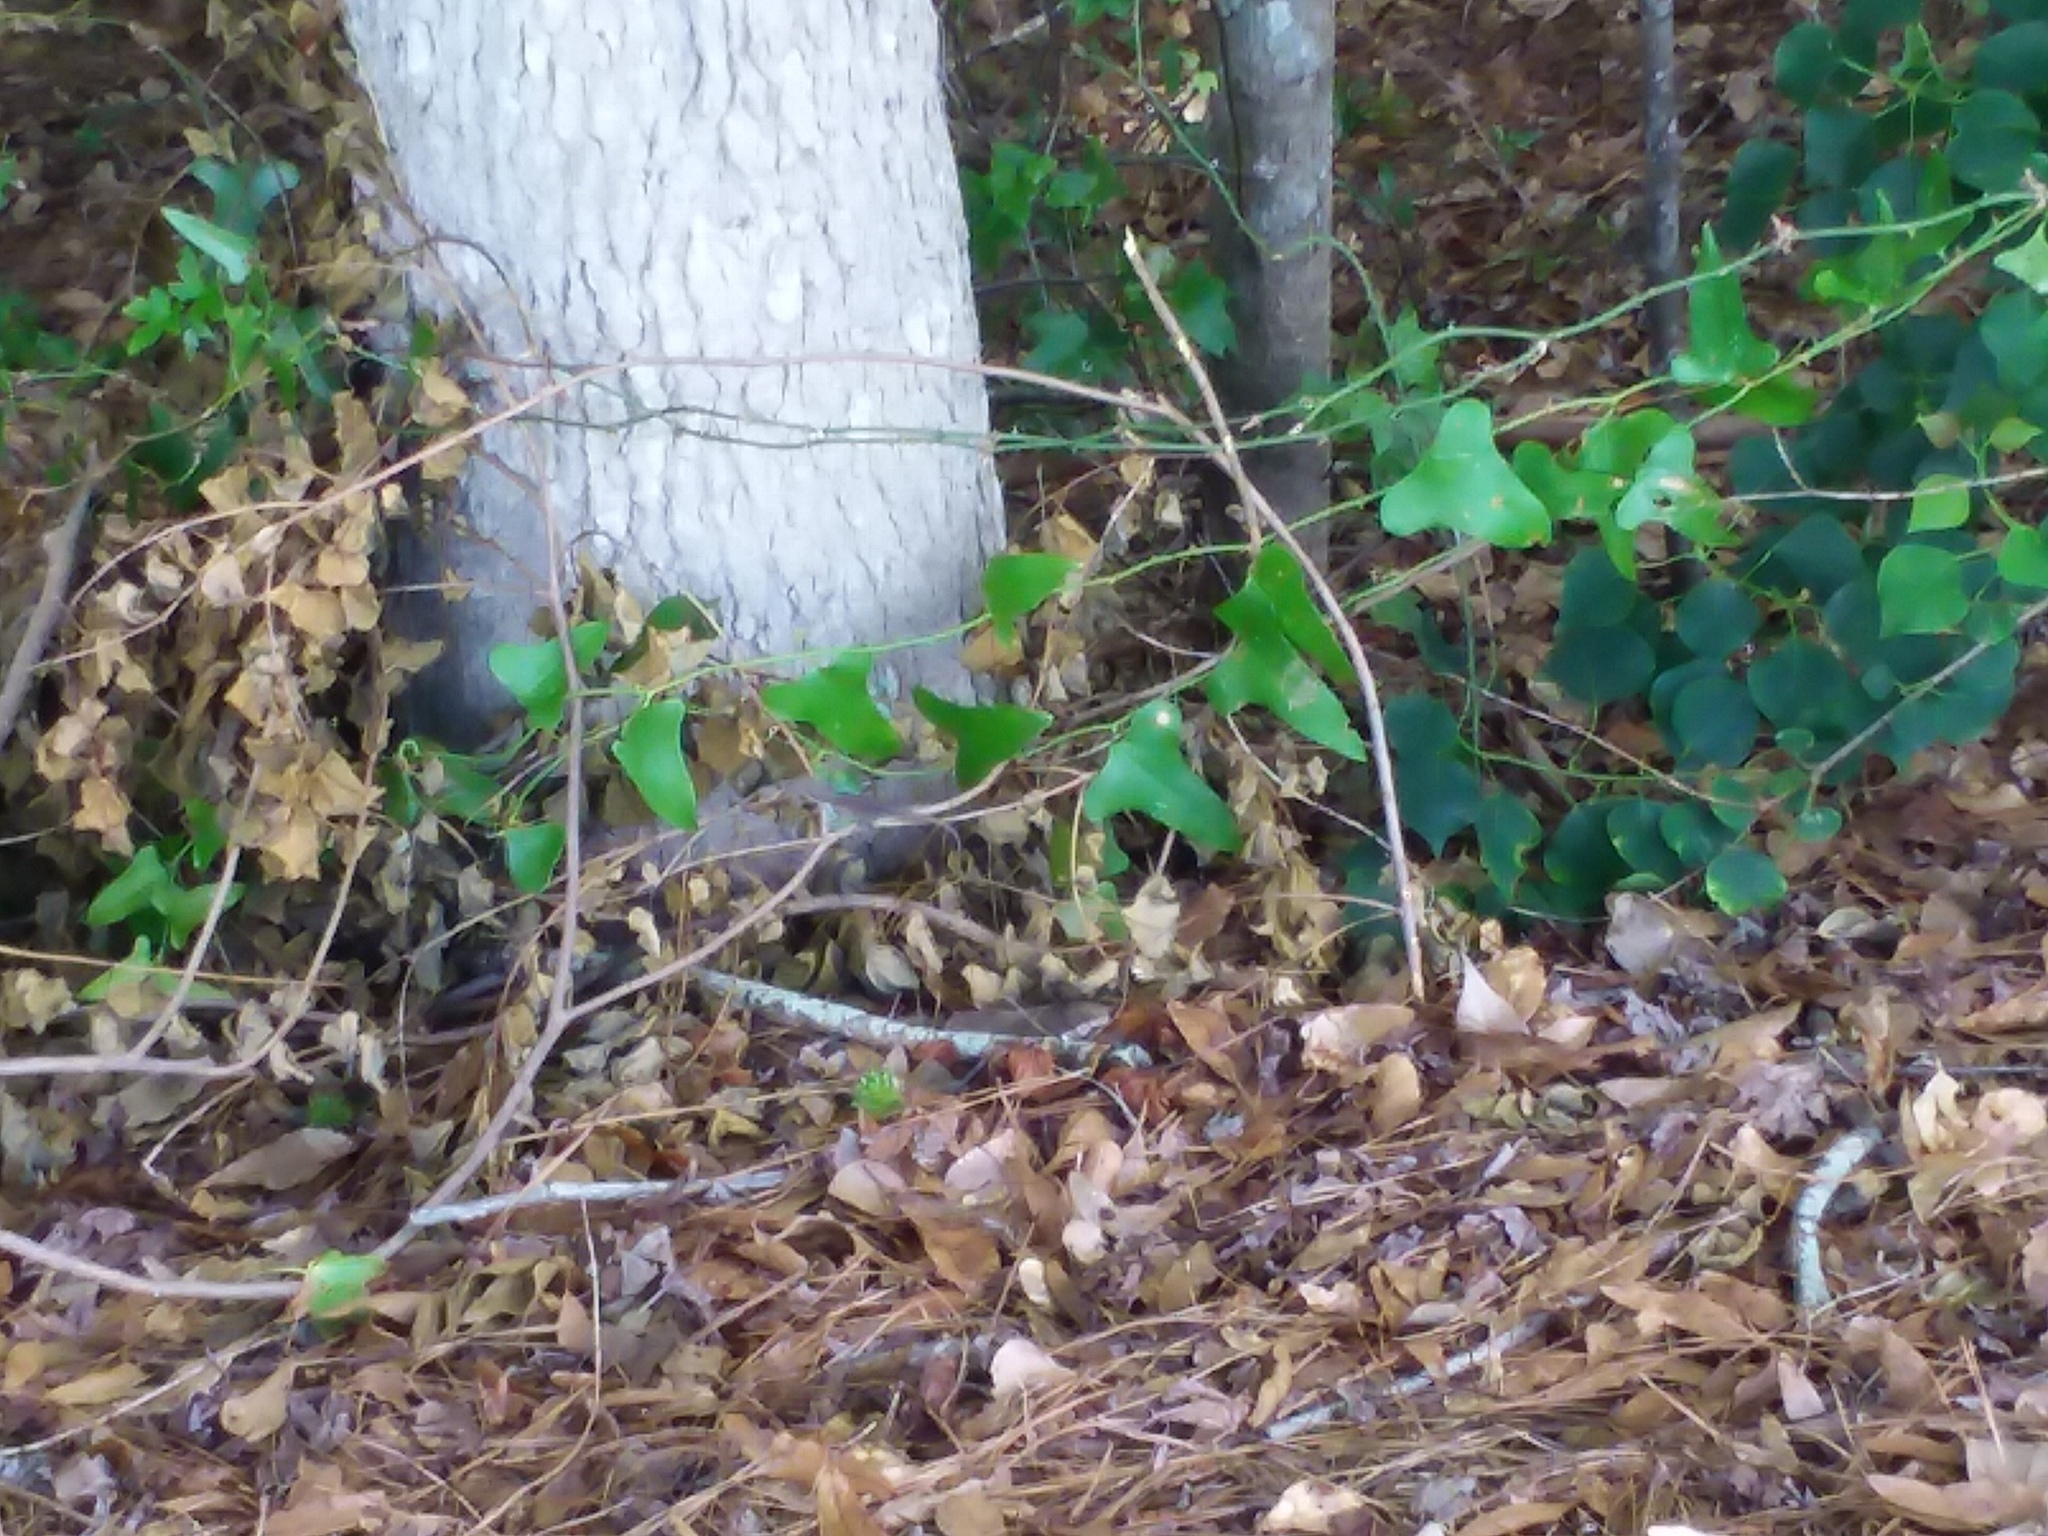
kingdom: Animalia
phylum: Chordata
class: Squamata
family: Dactyloidae
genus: Anolis
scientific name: Anolis carolinensis
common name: Green anole
